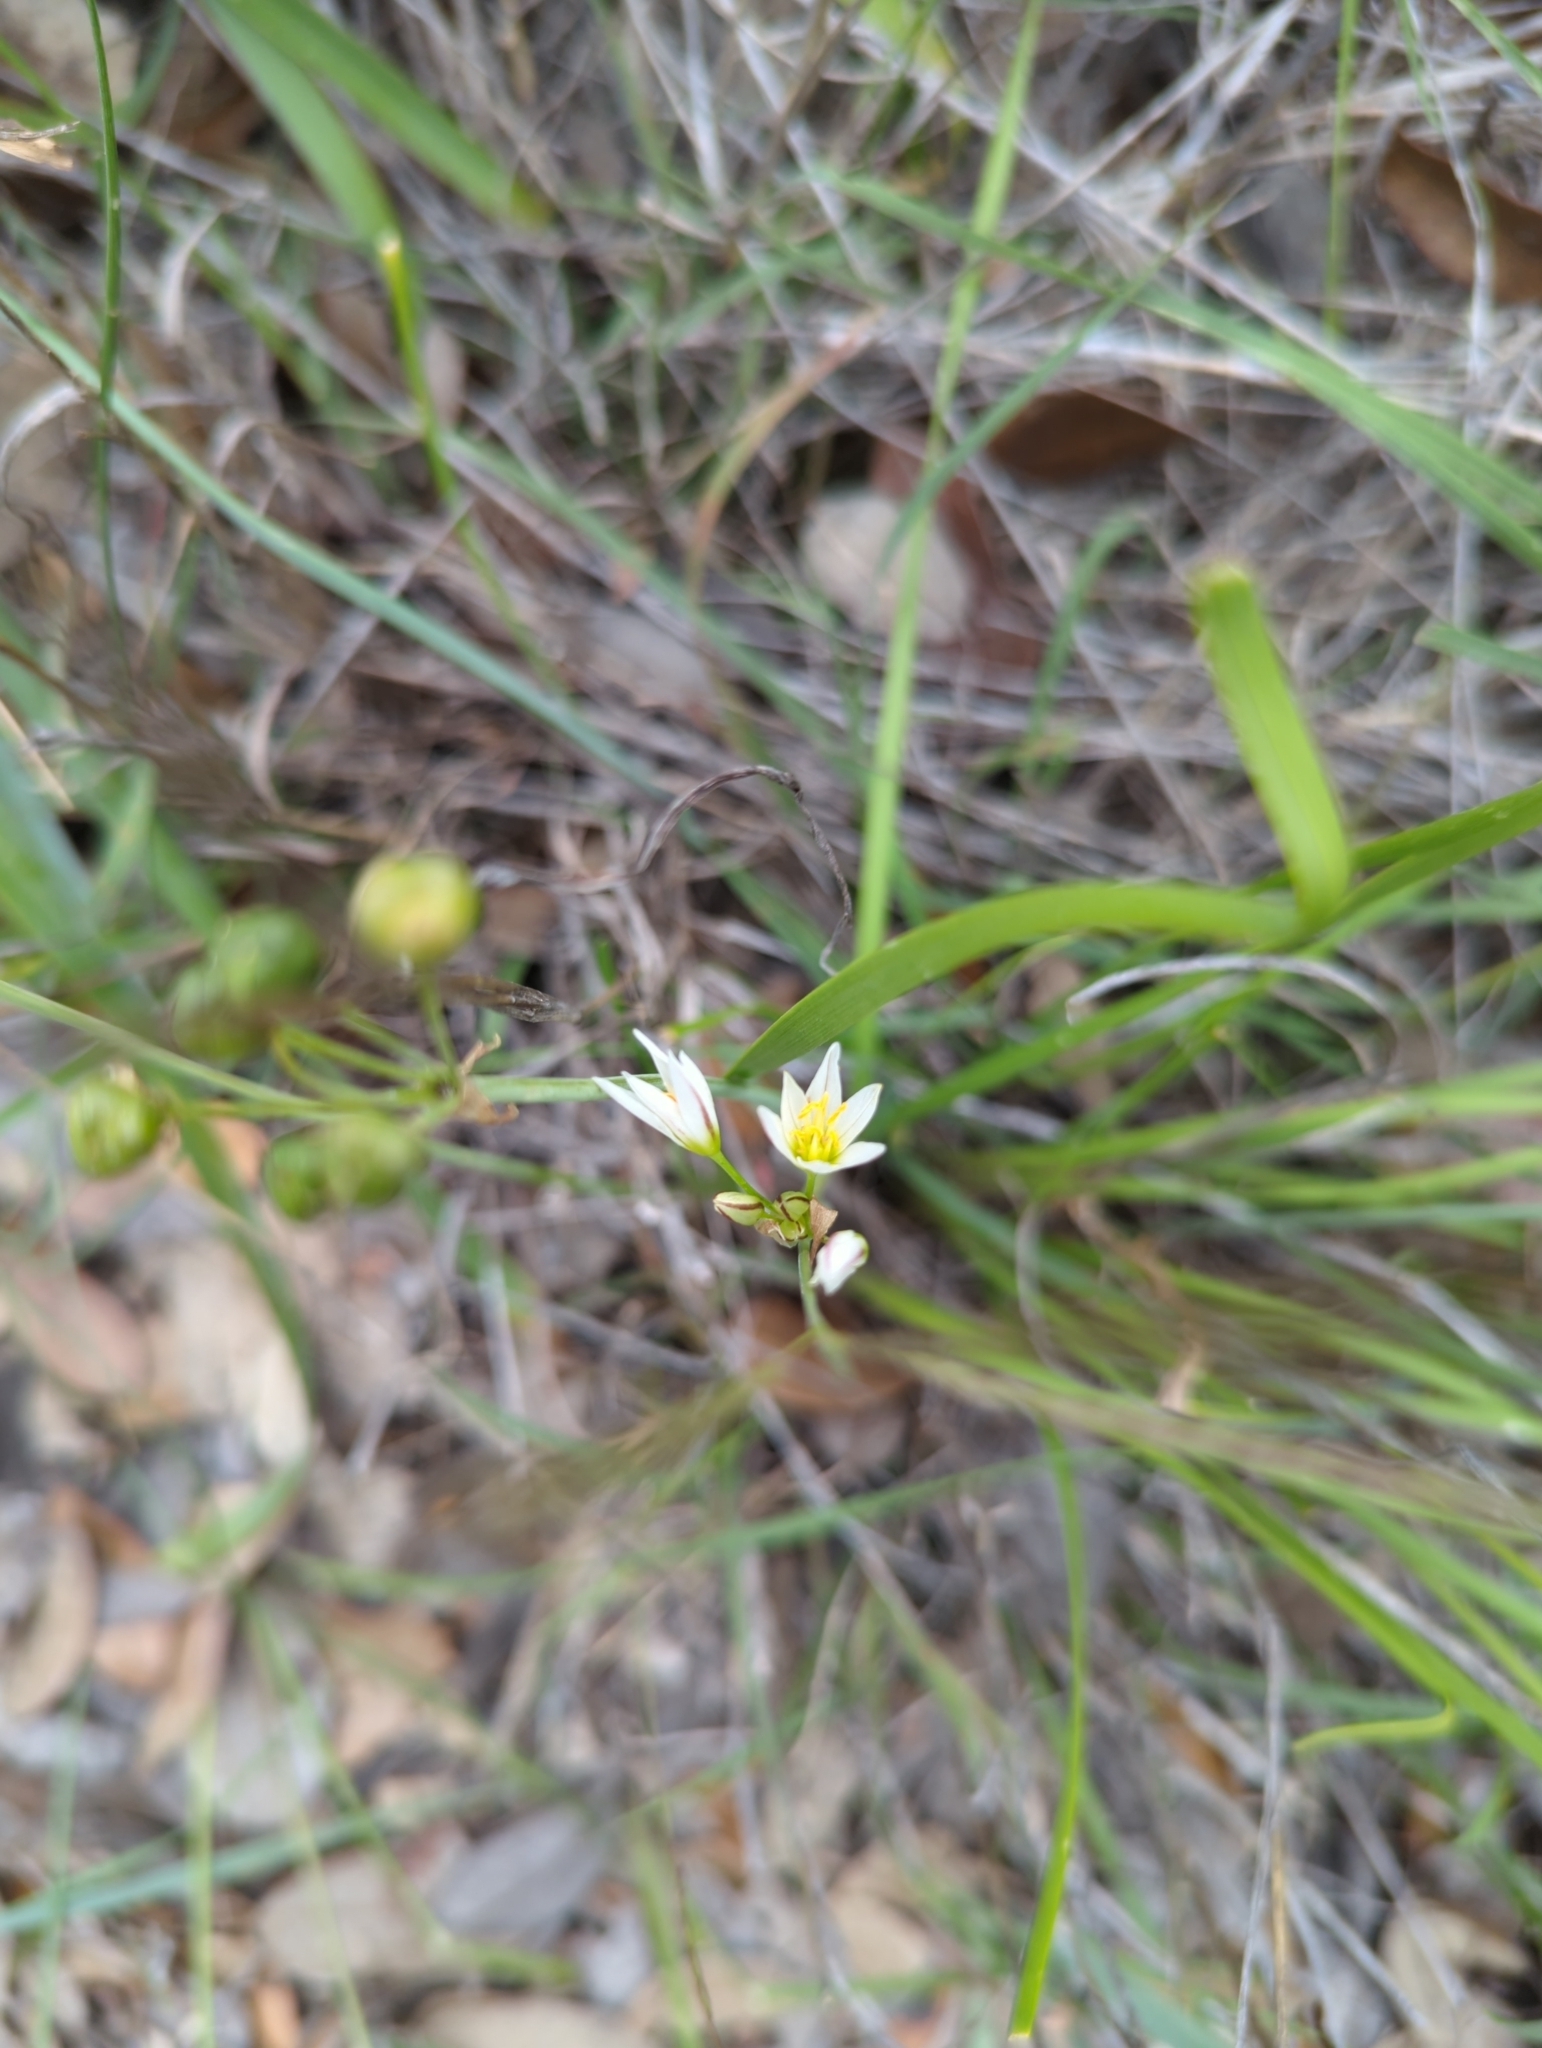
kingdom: Plantae
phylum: Tracheophyta
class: Liliopsida
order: Asparagales
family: Amaryllidaceae
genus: Nothoscordum
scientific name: Nothoscordum bivalve
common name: Crow-poison
